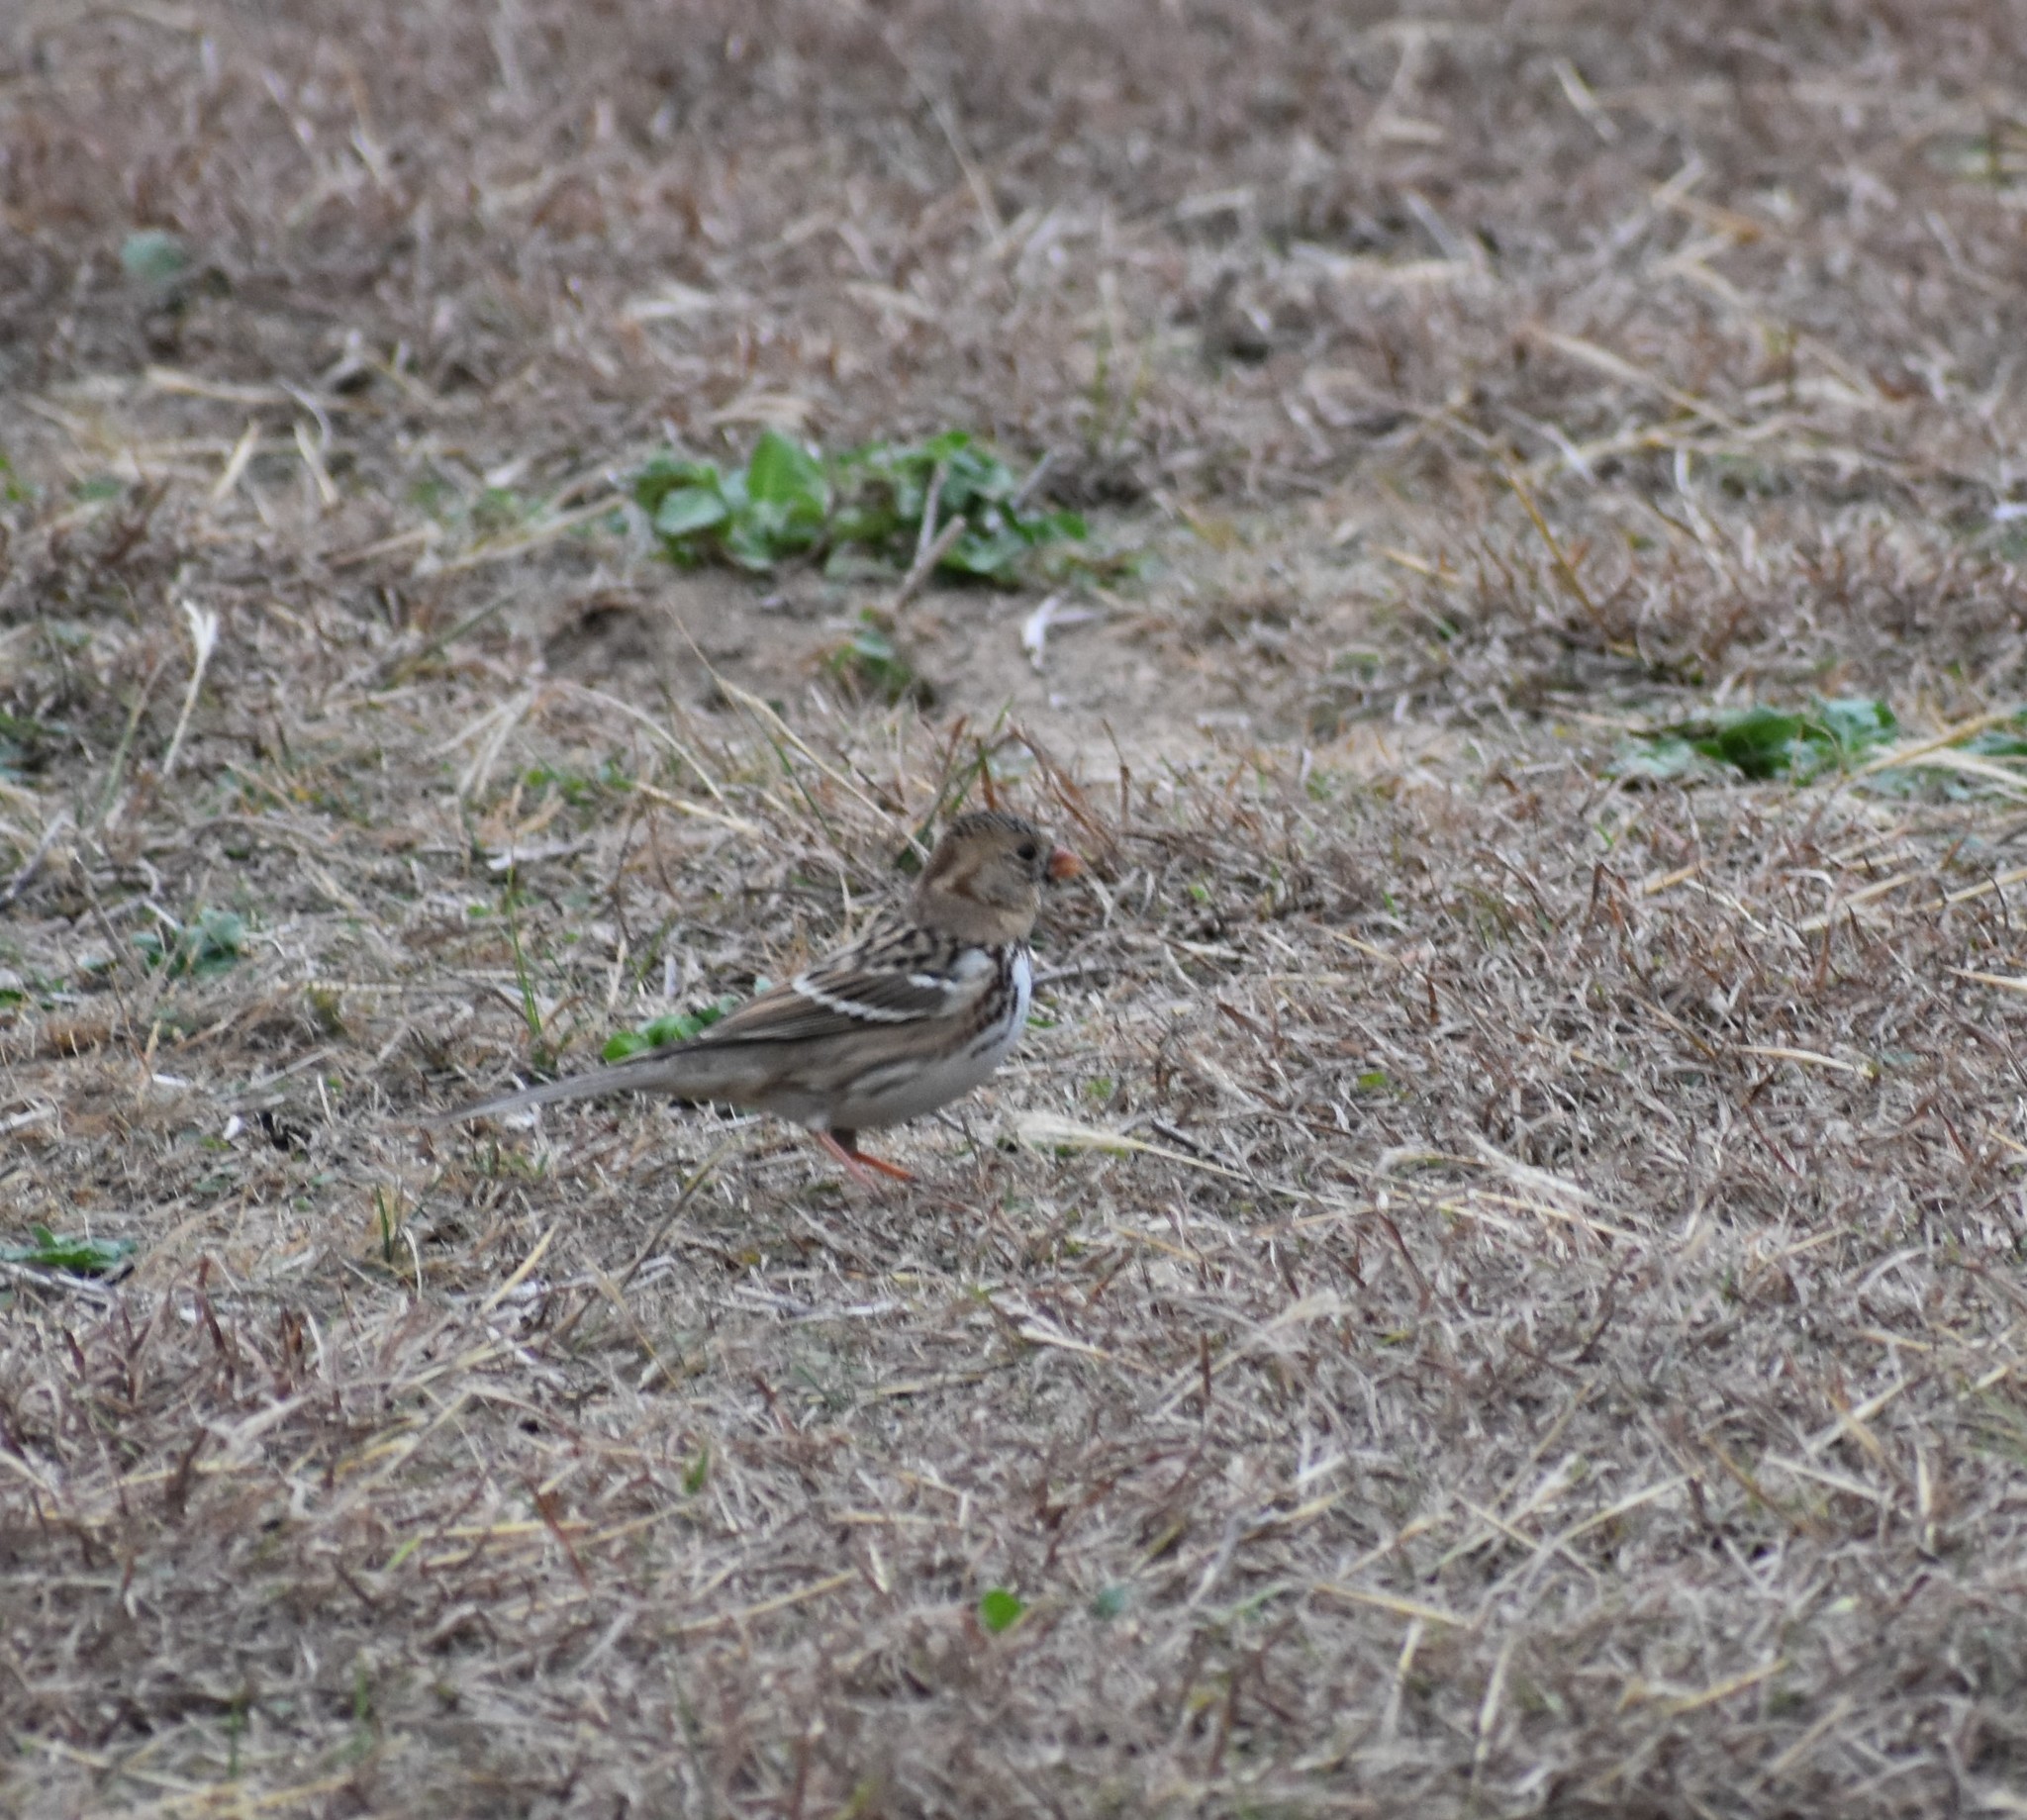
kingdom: Animalia
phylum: Chordata
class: Aves
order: Passeriformes
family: Passerellidae
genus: Zonotrichia
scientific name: Zonotrichia querula
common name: Harris's sparrow
